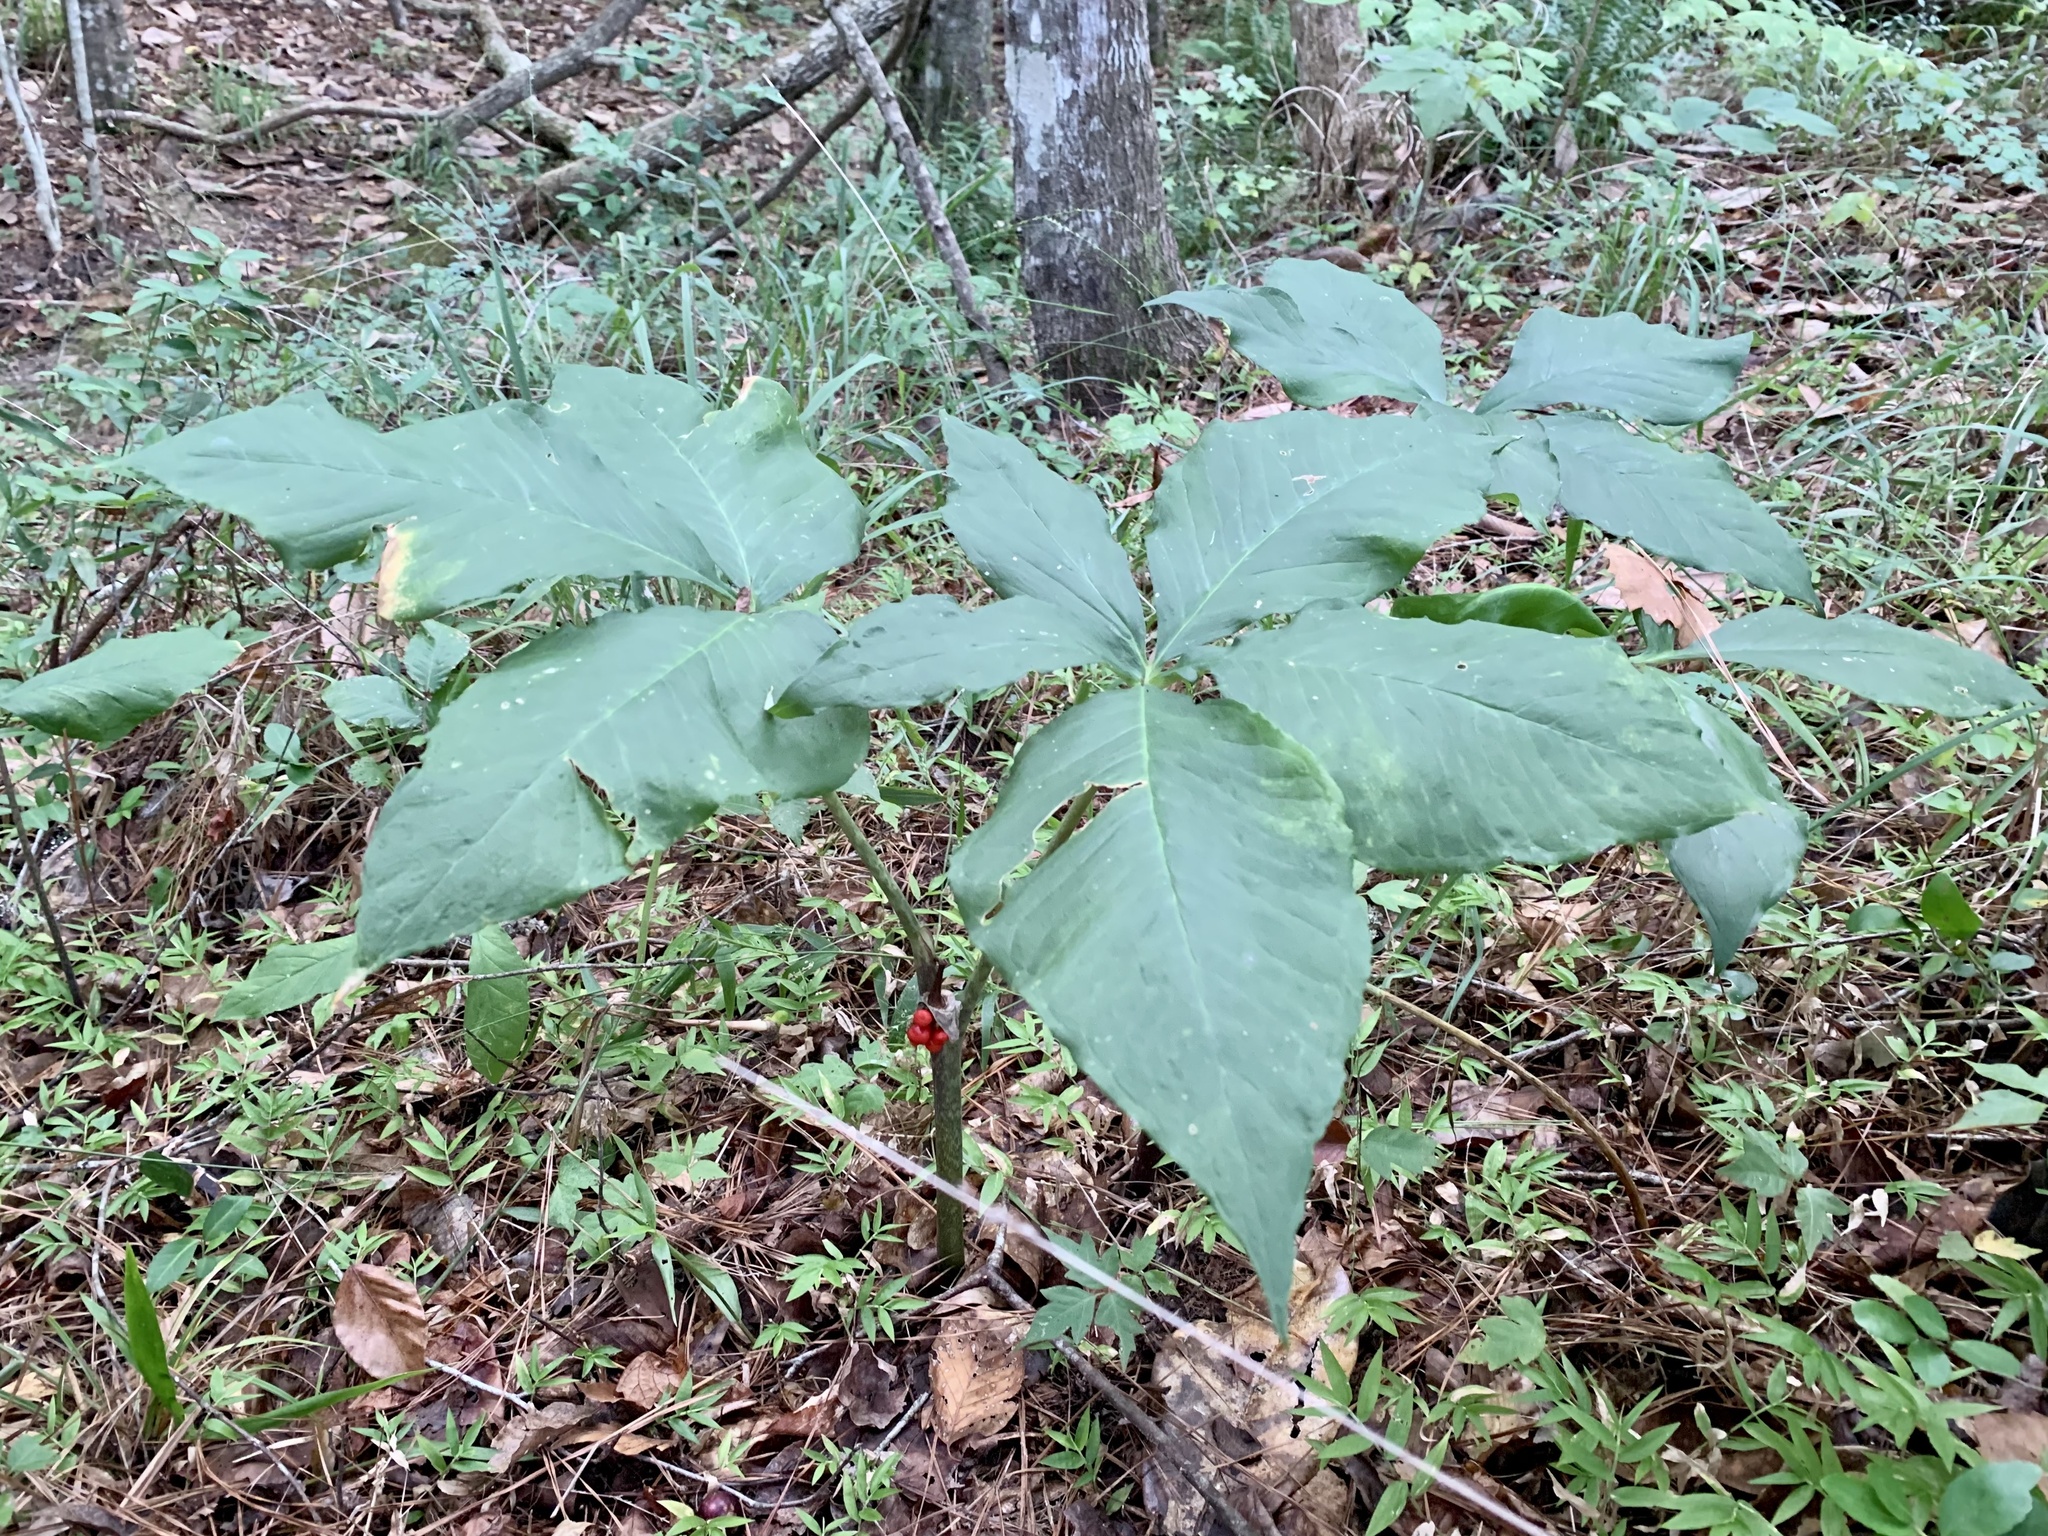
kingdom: Plantae
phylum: Tracheophyta
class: Liliopsida
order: Alismatales
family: Araceae
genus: Arisaema
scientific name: Arisaema quinatum
